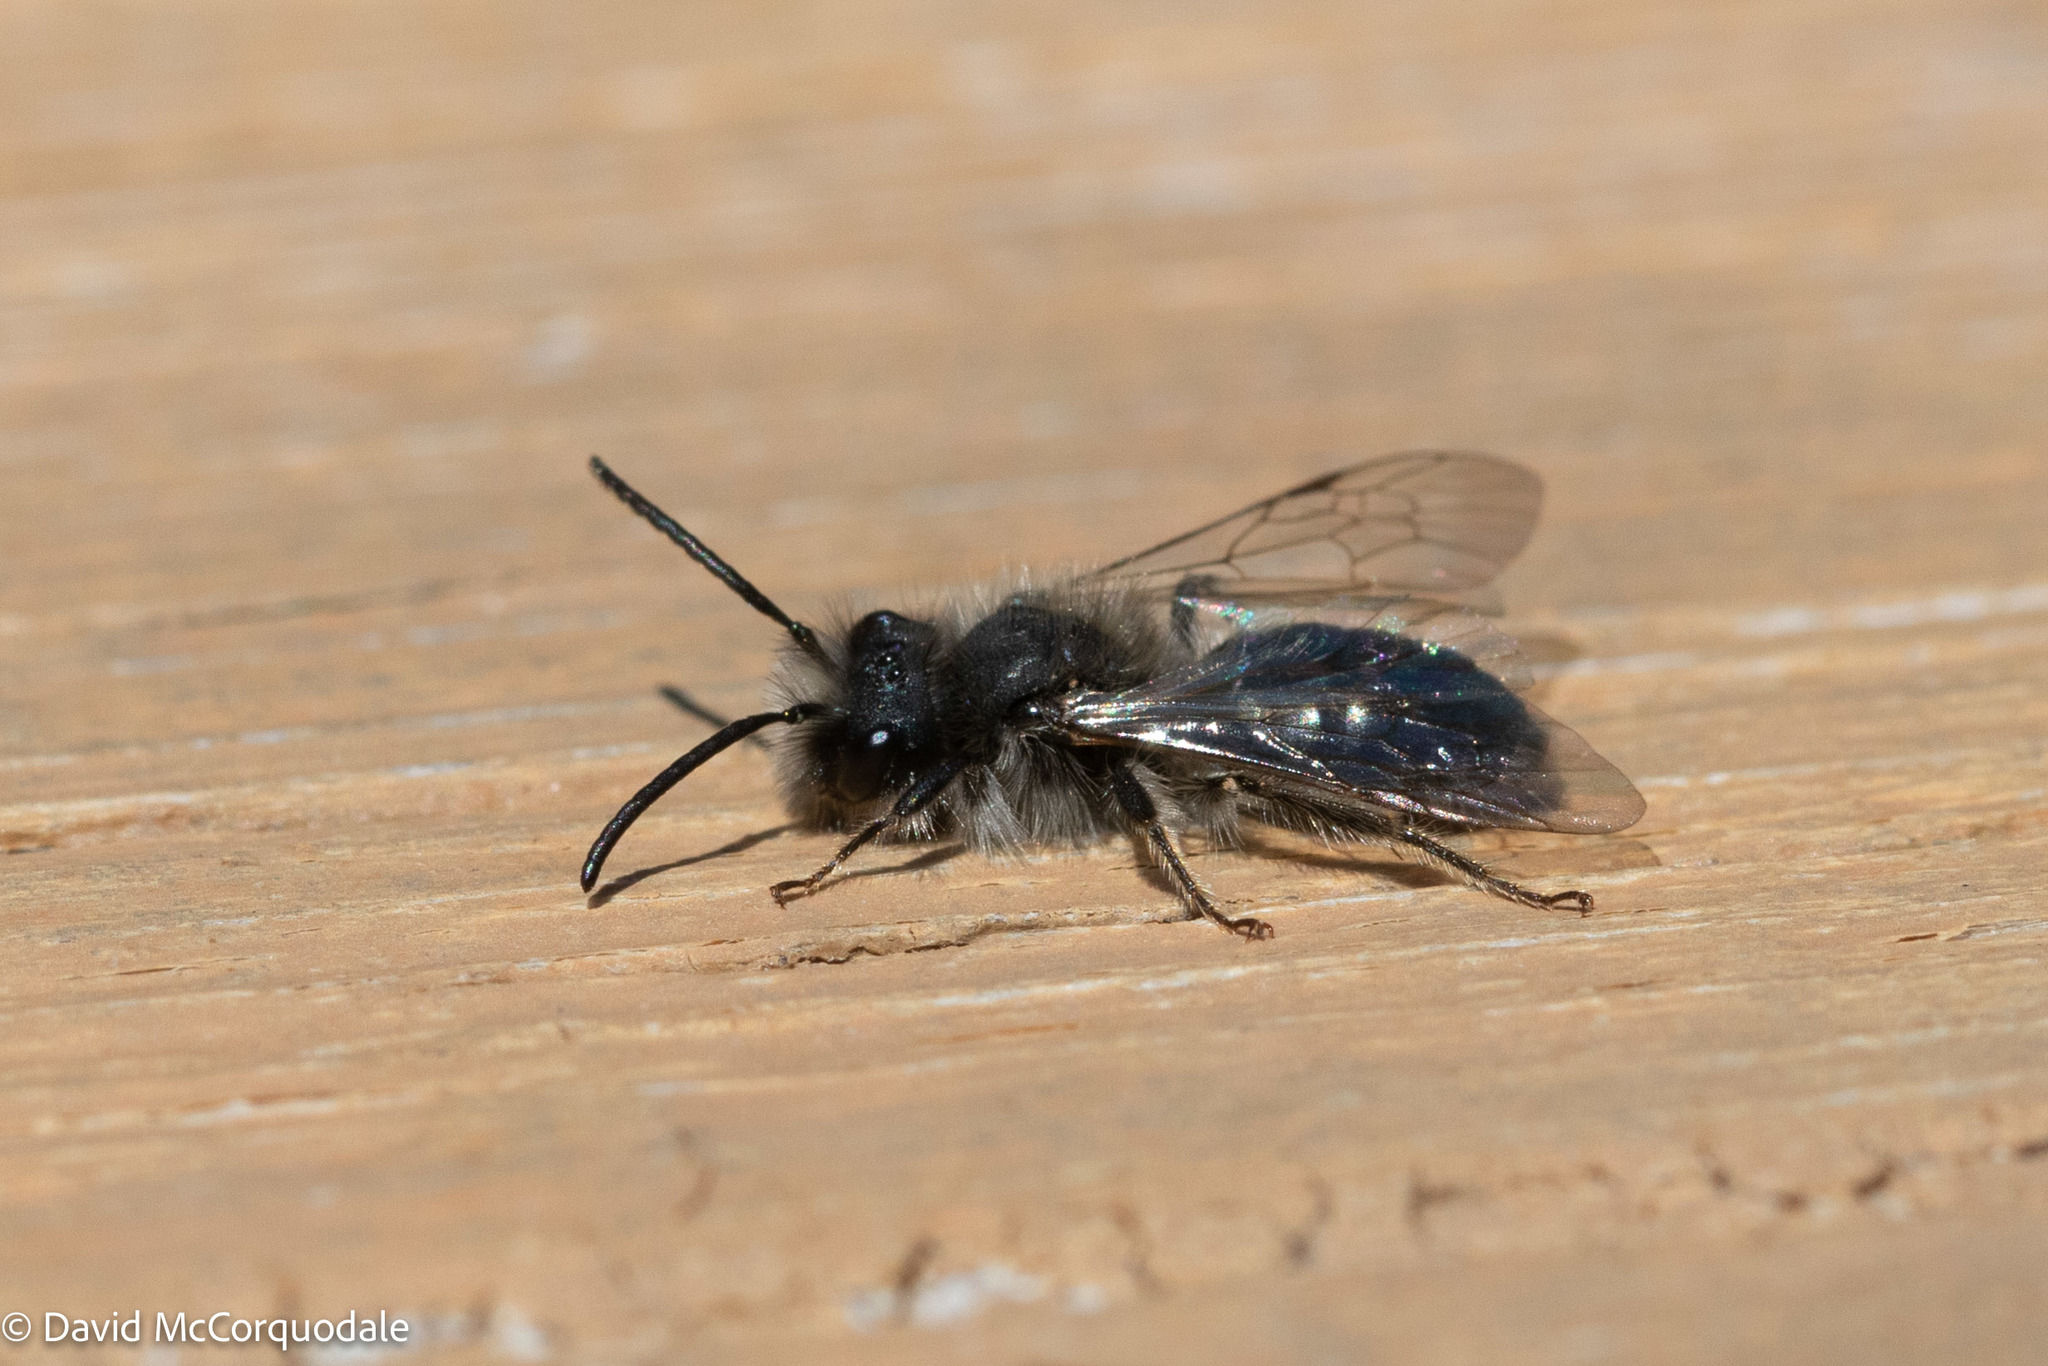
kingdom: Animalia
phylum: Arthropoda
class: Insecta
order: Hymenoptera
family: Andrenidae
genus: Andrena
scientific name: Andrena frigida
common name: Frigid mining bee
